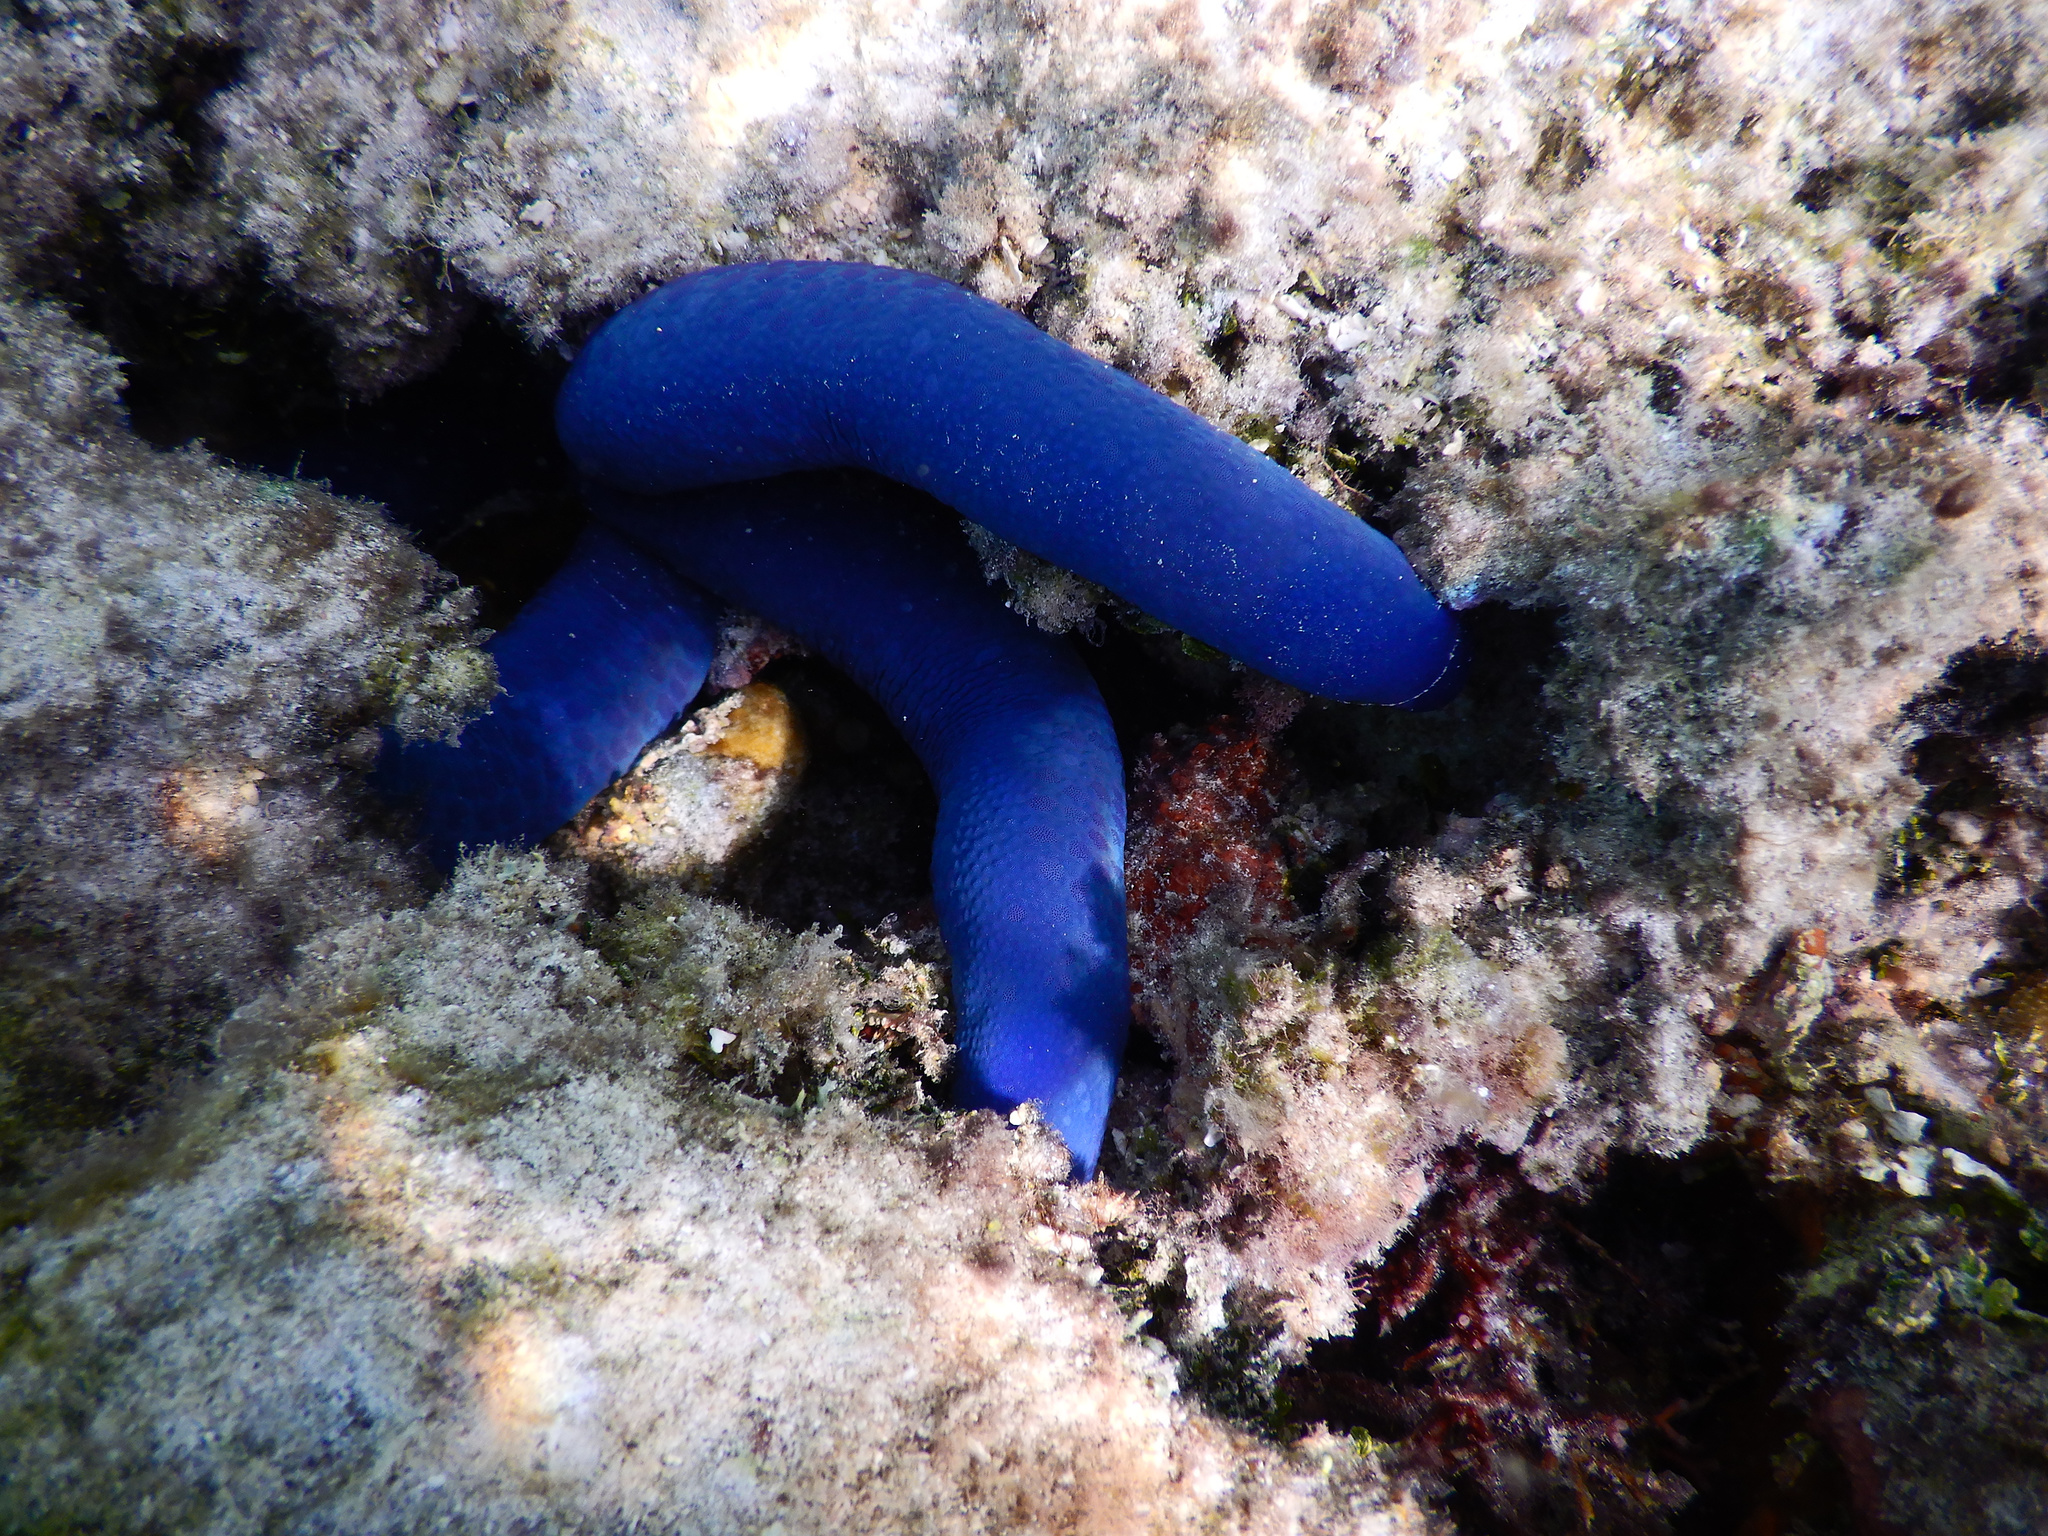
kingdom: Animalia
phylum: Echinodermata
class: Asteroidea
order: Valvatida
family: Ophidiasteridae
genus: Linckia
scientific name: Linckia laevigata
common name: Azure sea star
